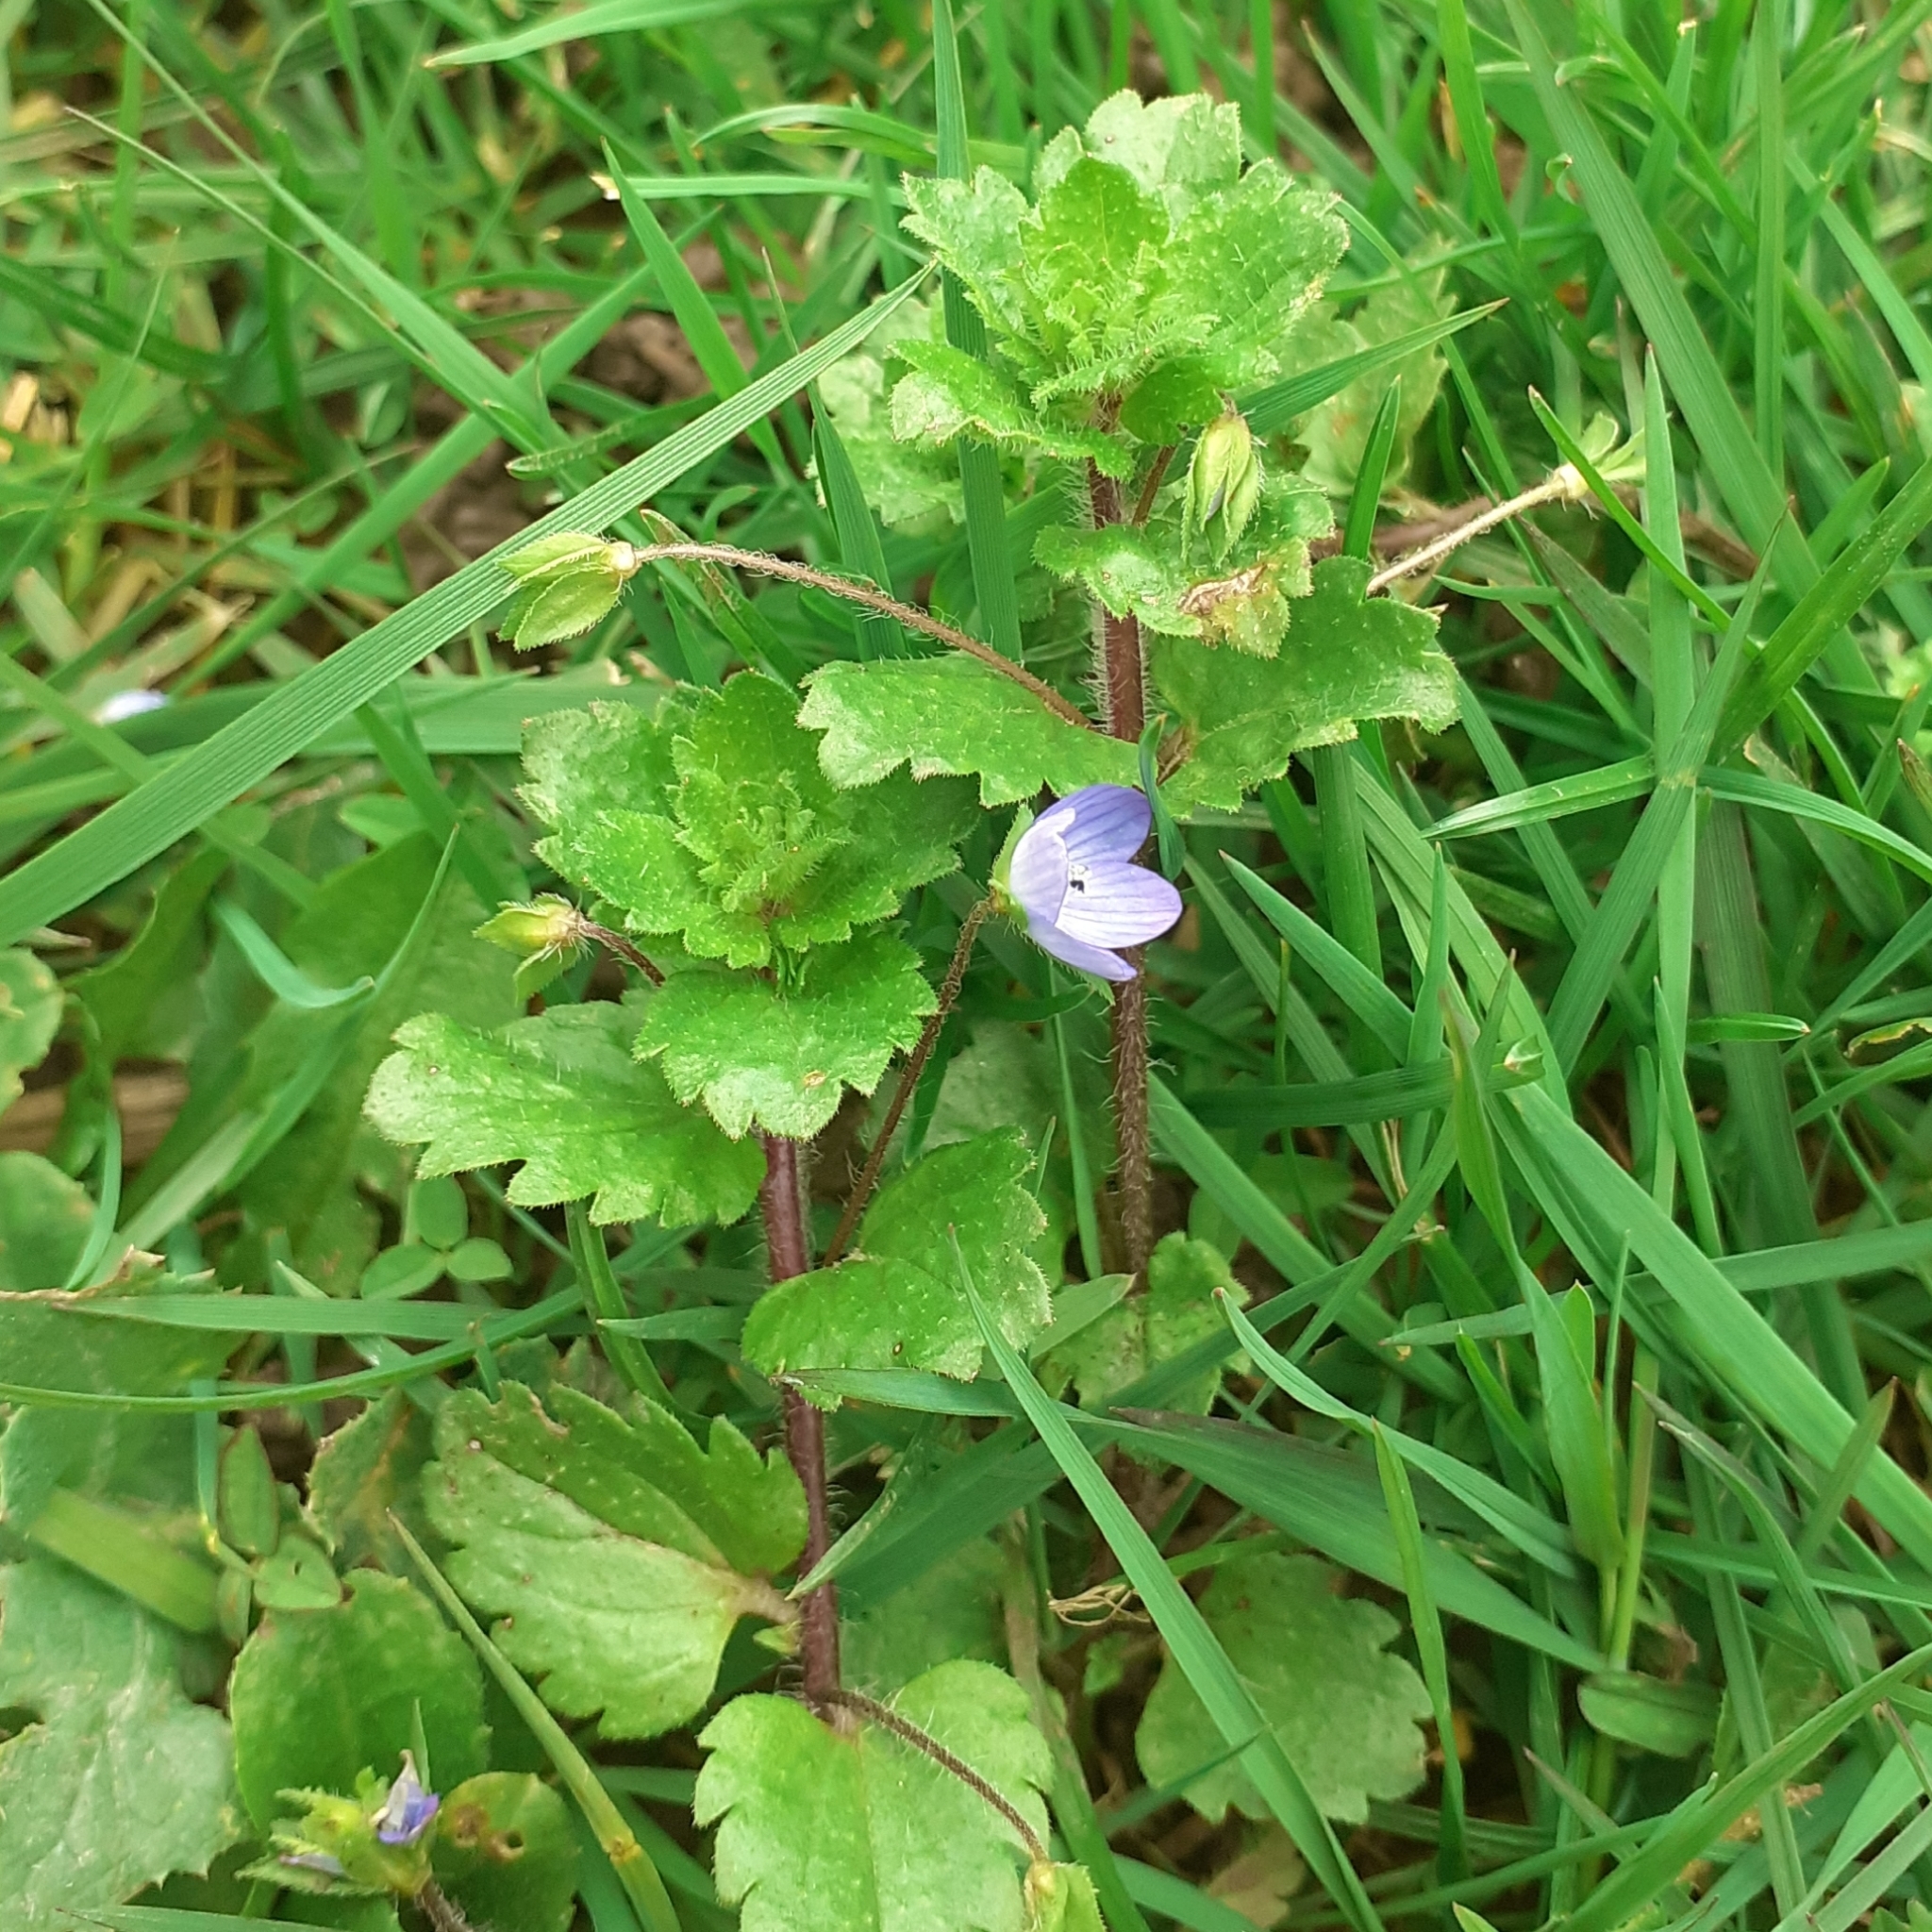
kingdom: Plantae
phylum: Tracheophyta
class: Magnoliopsida
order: Lamiales
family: Plantaginaceae
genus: Veronica
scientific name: Veronica persica
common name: Common field-speedwell
